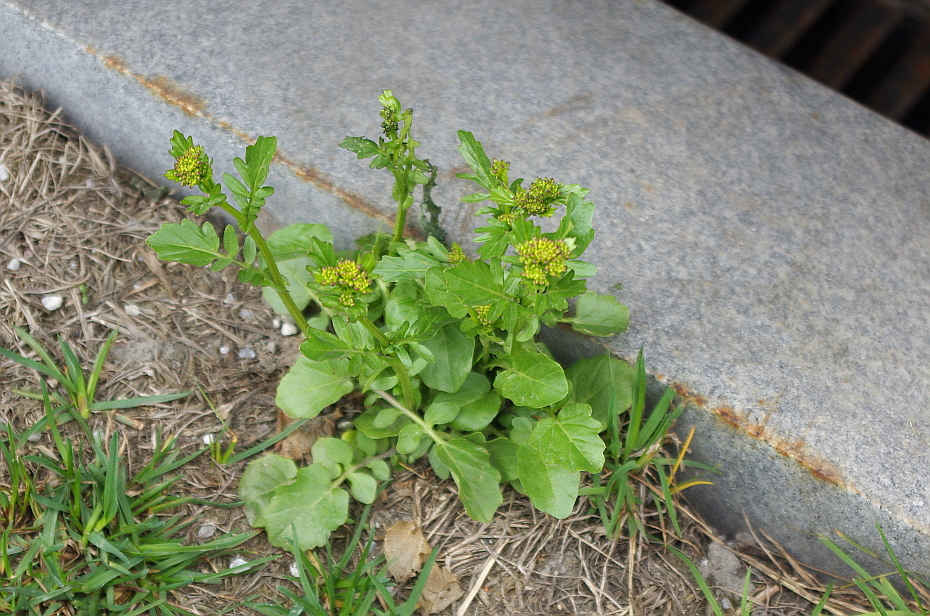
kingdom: Plantae
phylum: Tracheophyta
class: Magnoliopsida
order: Brassicales
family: Brassicaceae
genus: Barbarea
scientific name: Barbarea vulgaris
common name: Cressy-greens
